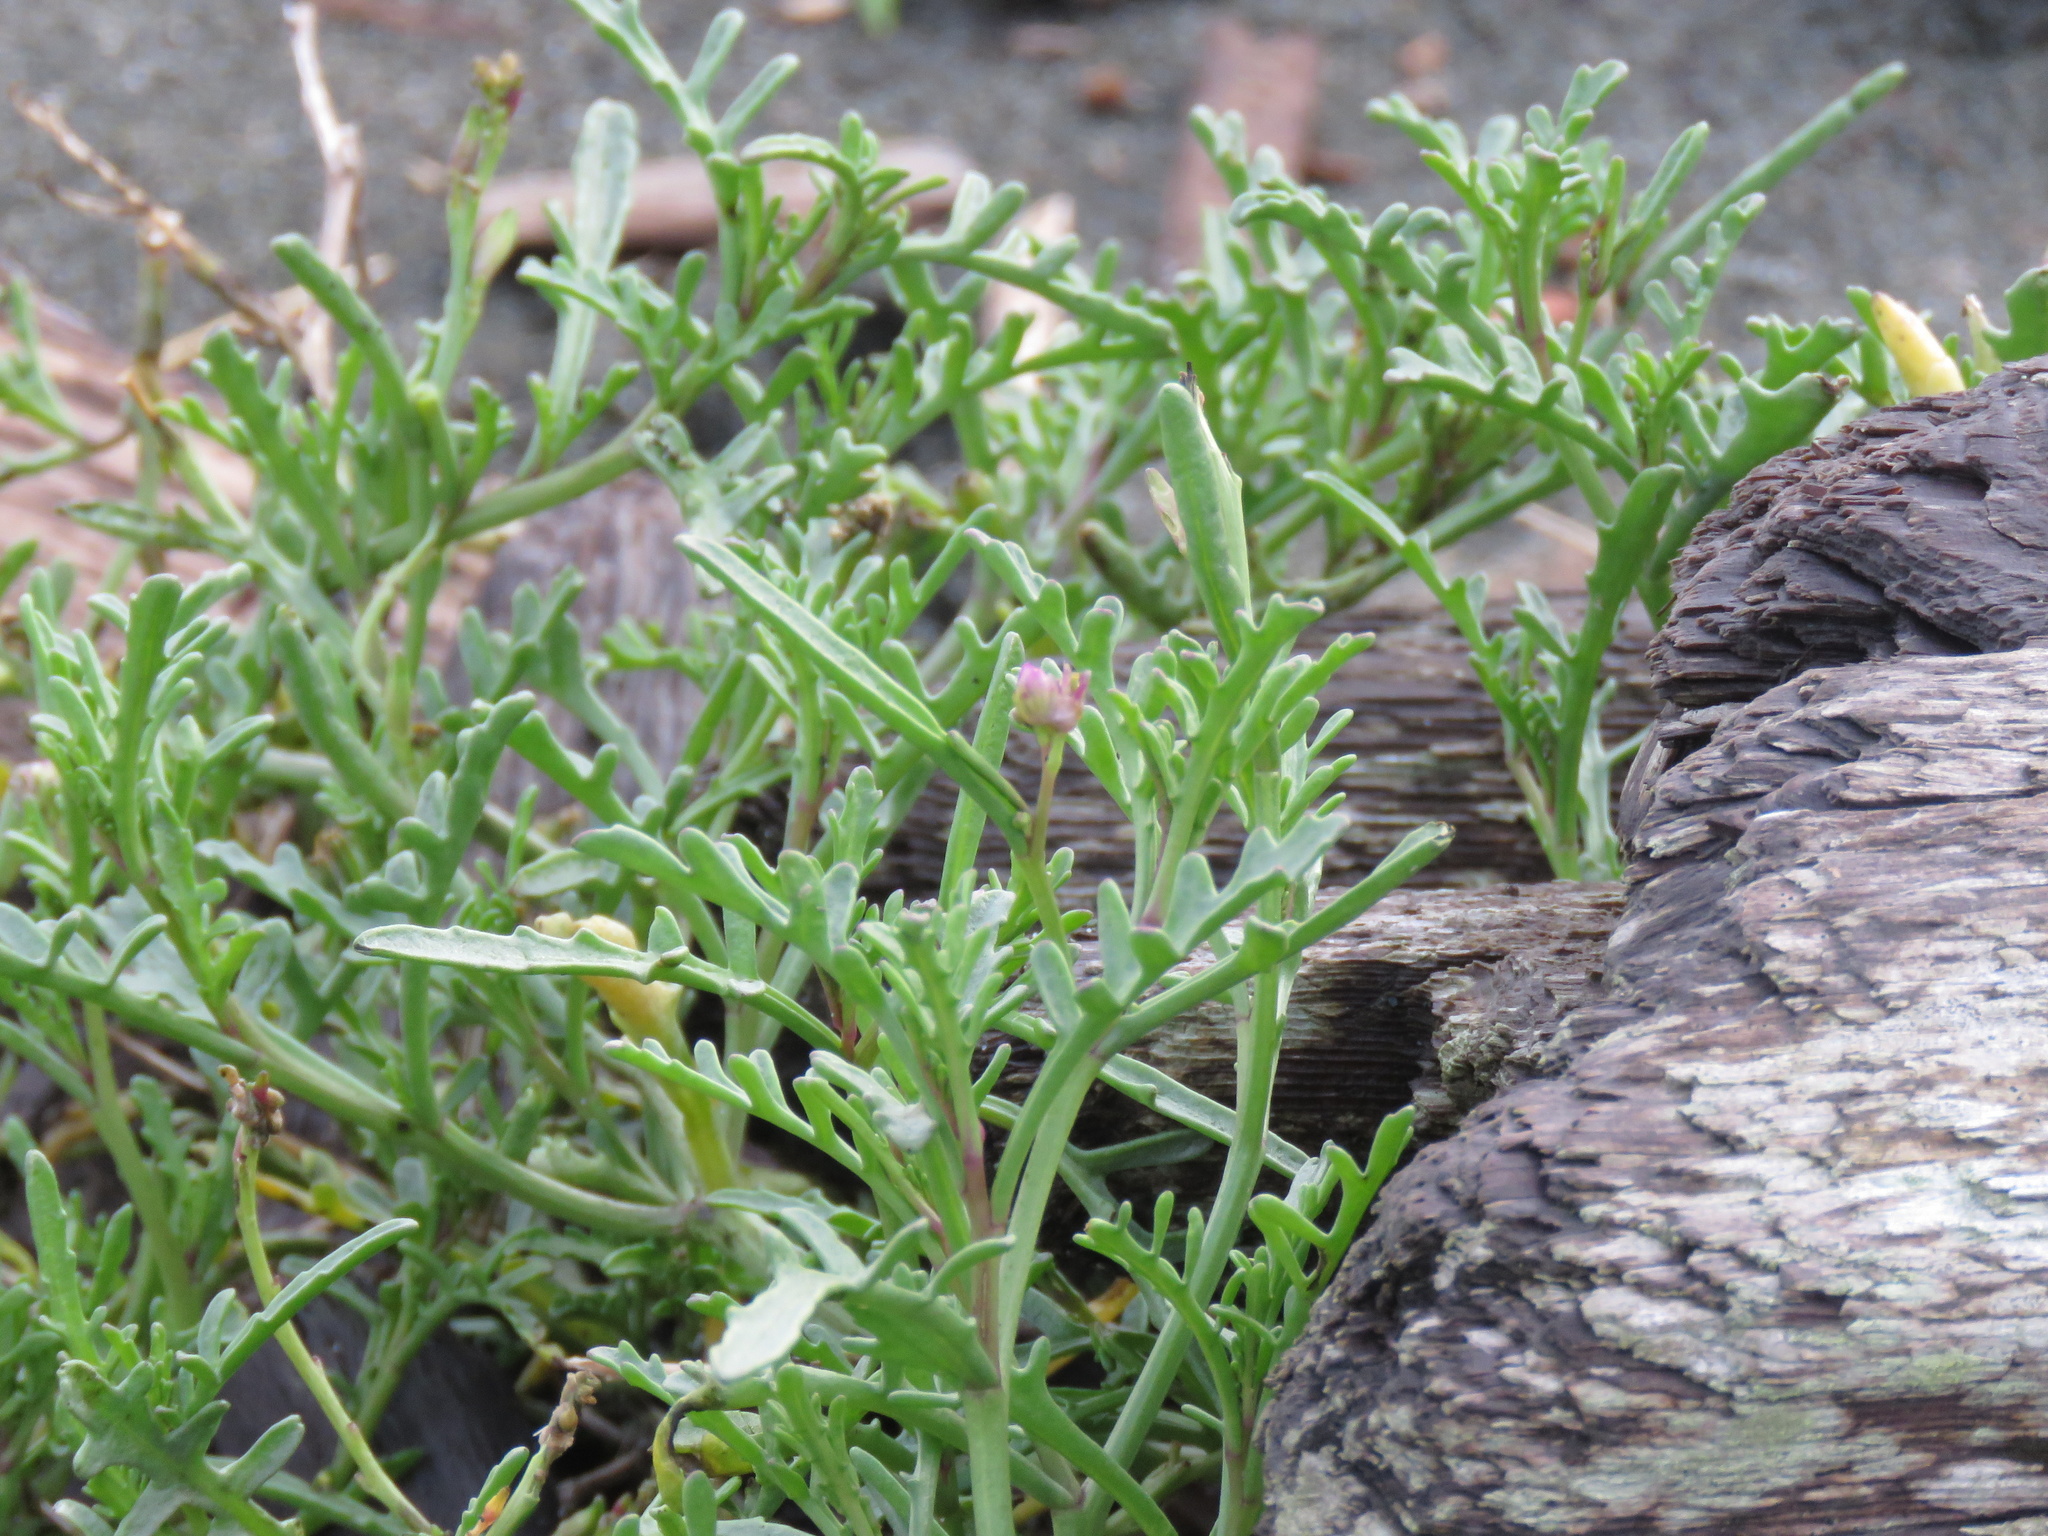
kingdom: Plantae
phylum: Tracheophyta
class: Magnoliopsida
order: Brassicales
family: Brassicaceae
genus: Cakile
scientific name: Cakile maritima
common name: Sea rocket
